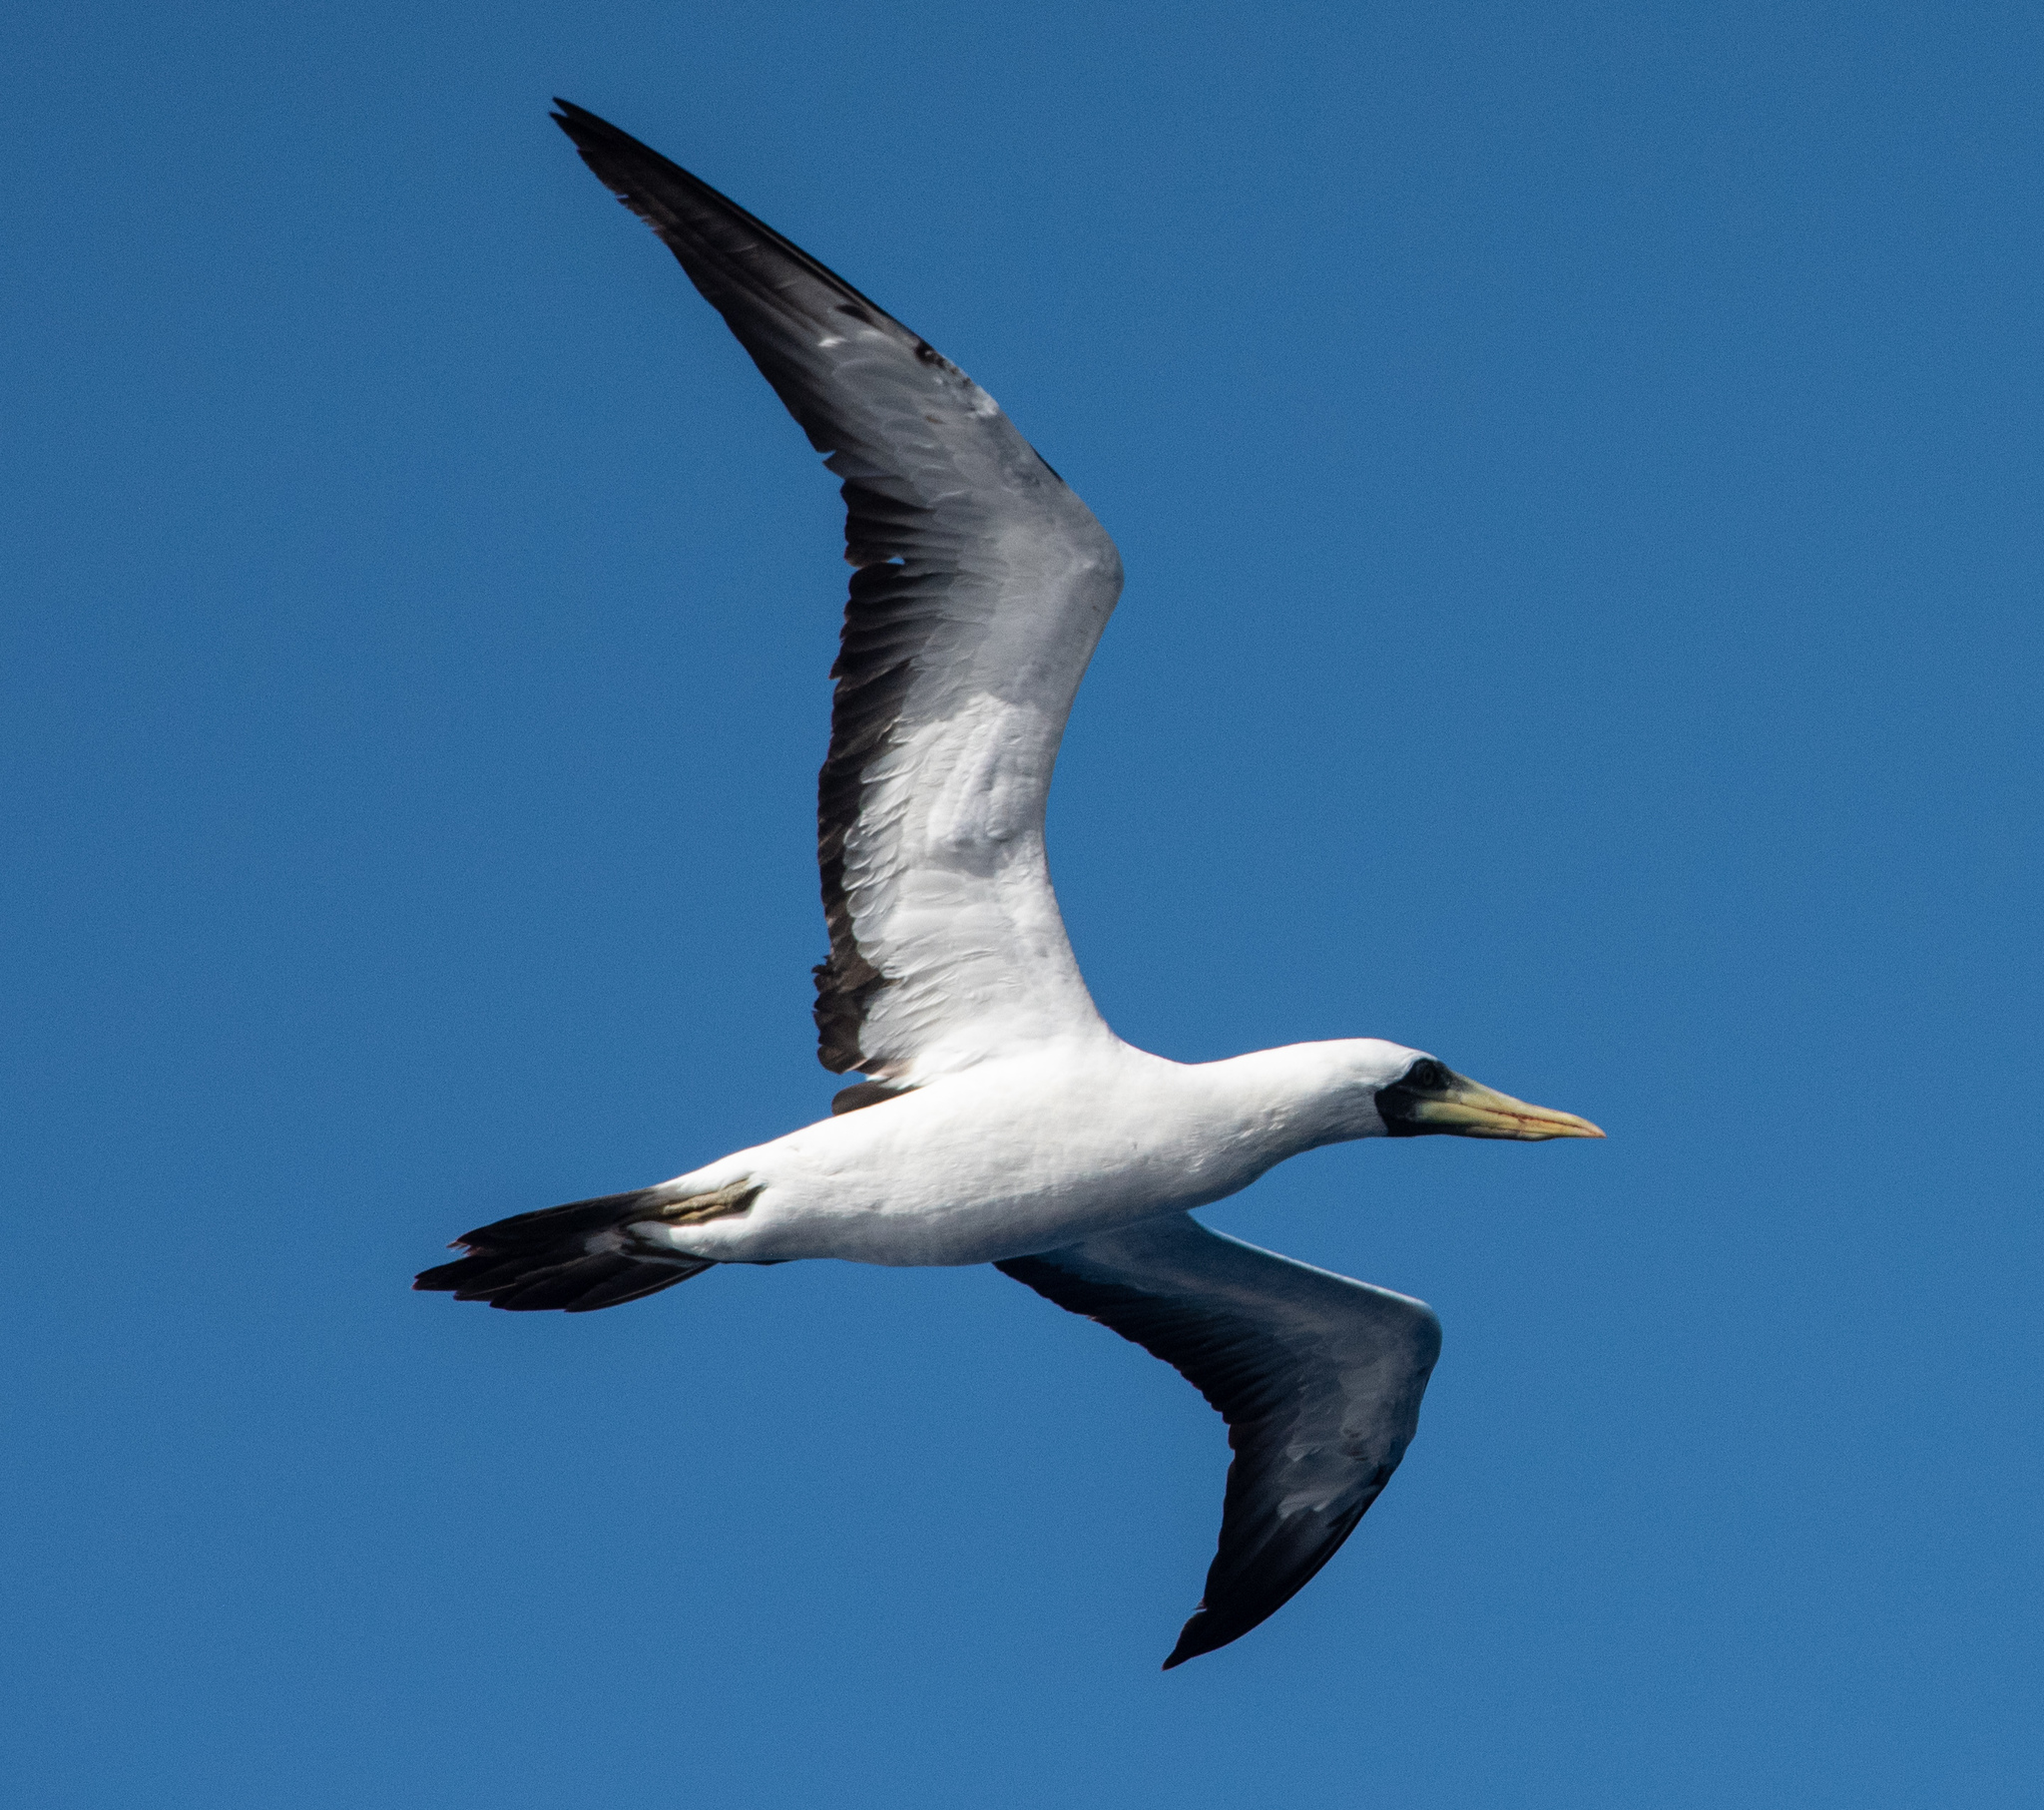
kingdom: Animalia
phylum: Chordata
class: Aves
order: Suliformes
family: Sulidae
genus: Sula
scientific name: Sula dactylatra
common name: Masked booby
